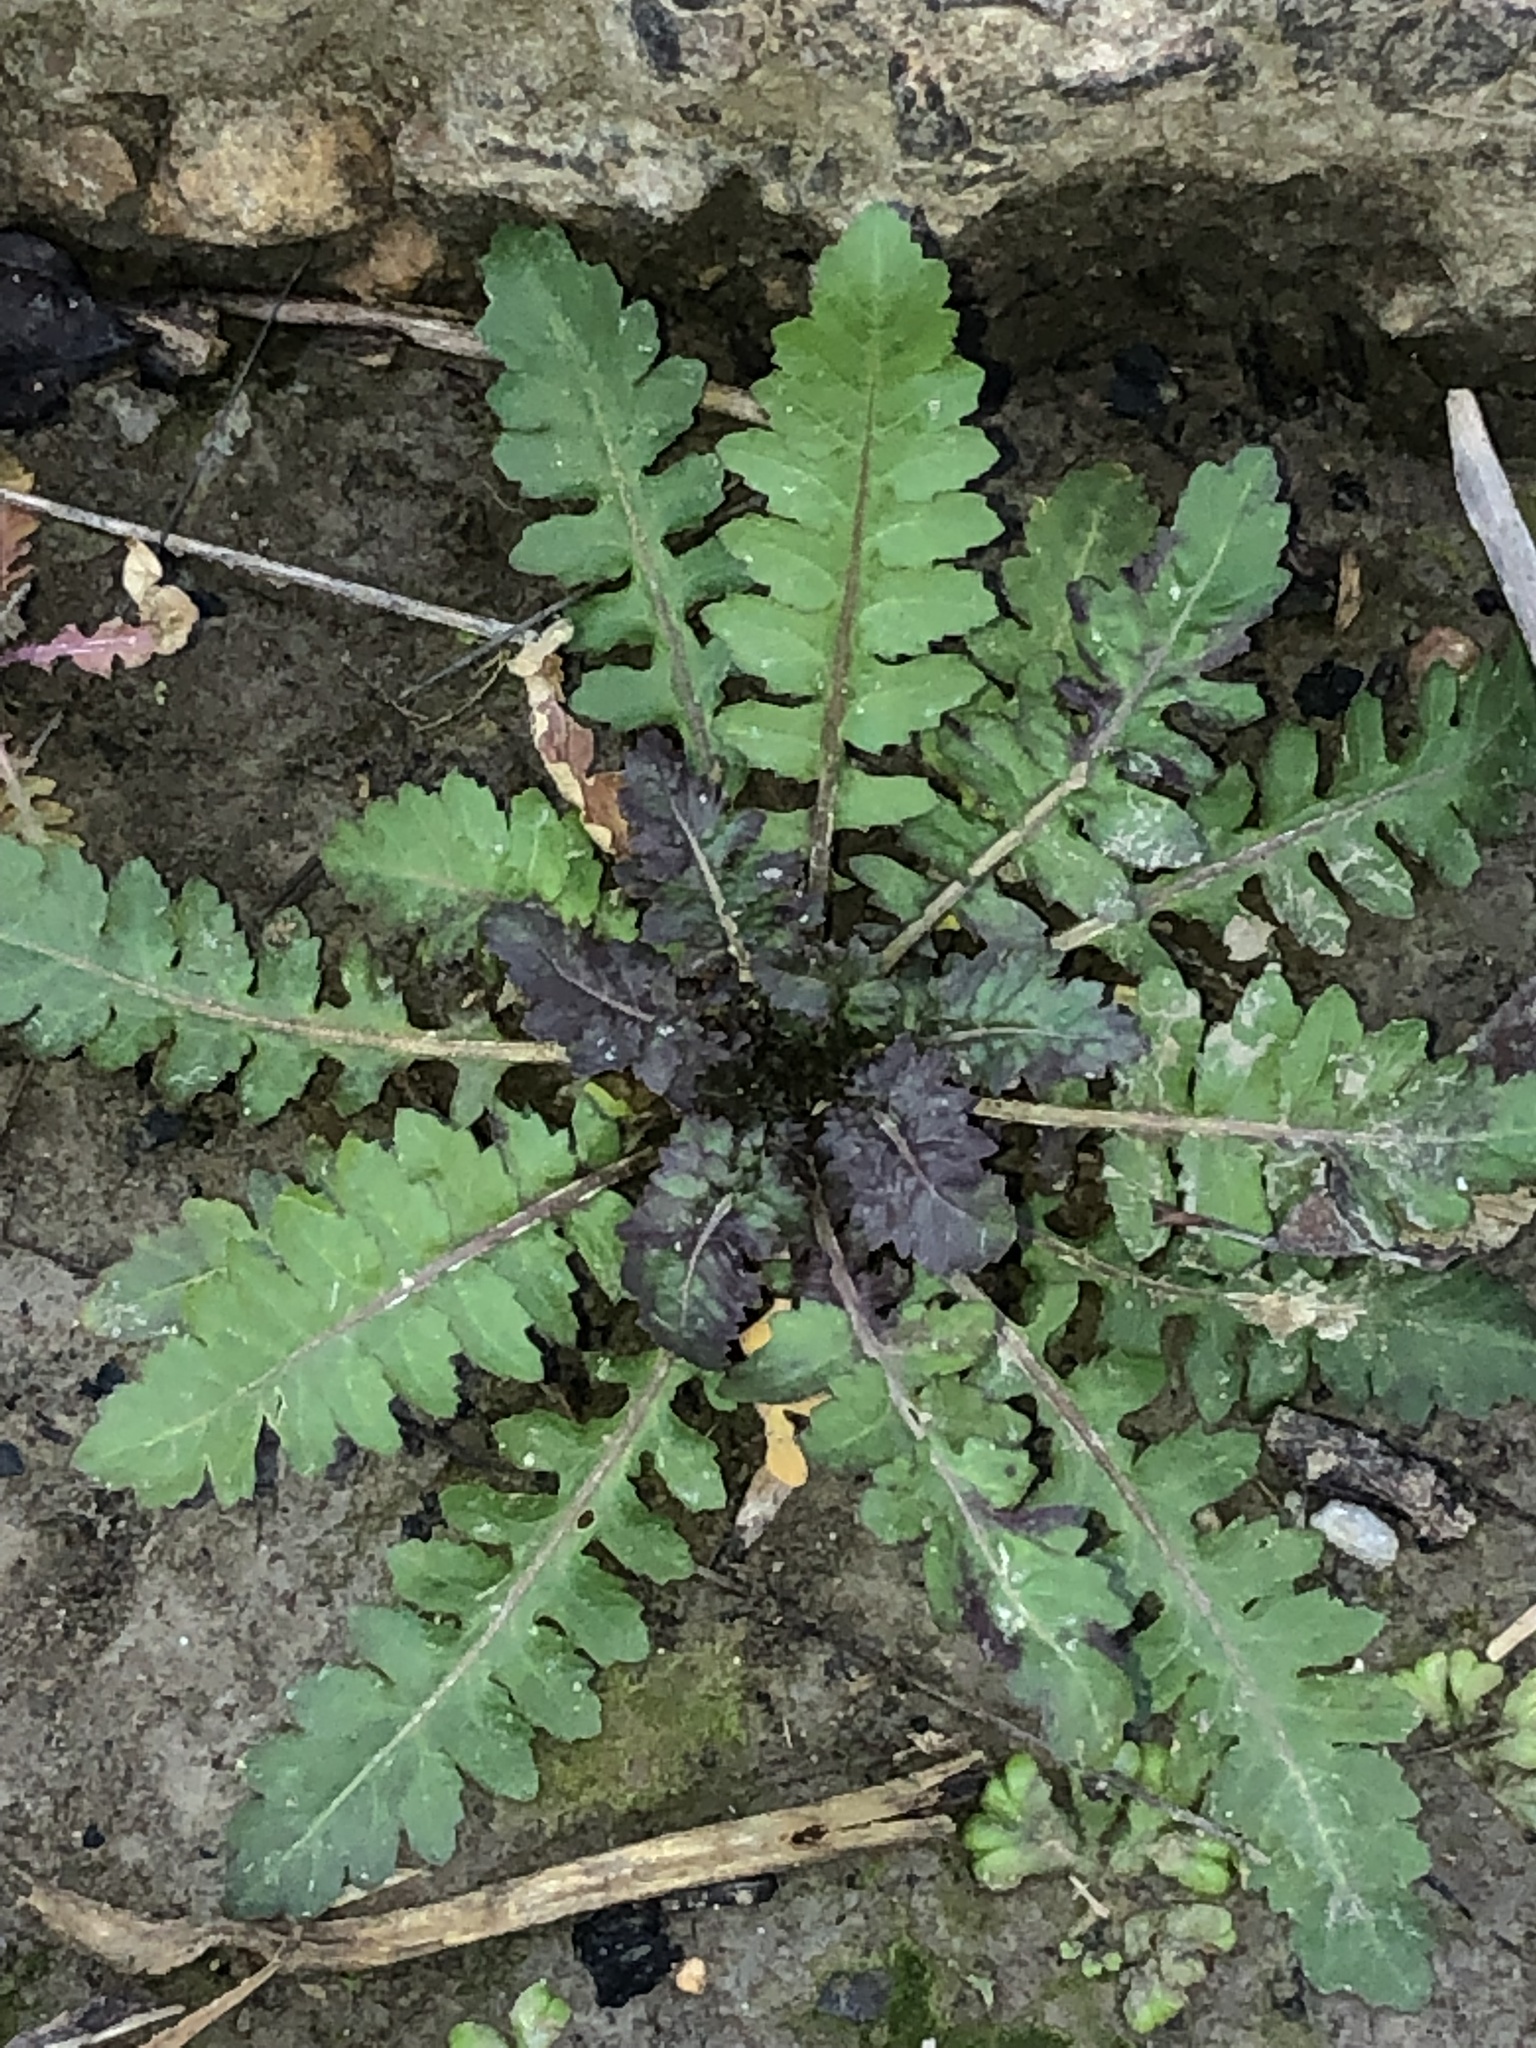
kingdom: Plantae
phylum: Tracheophyta
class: Magnoliopsida
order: Brassicales
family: Brassicaceae
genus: Rorippa
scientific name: Rorippa teres
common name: Southern marsh yellowcress
